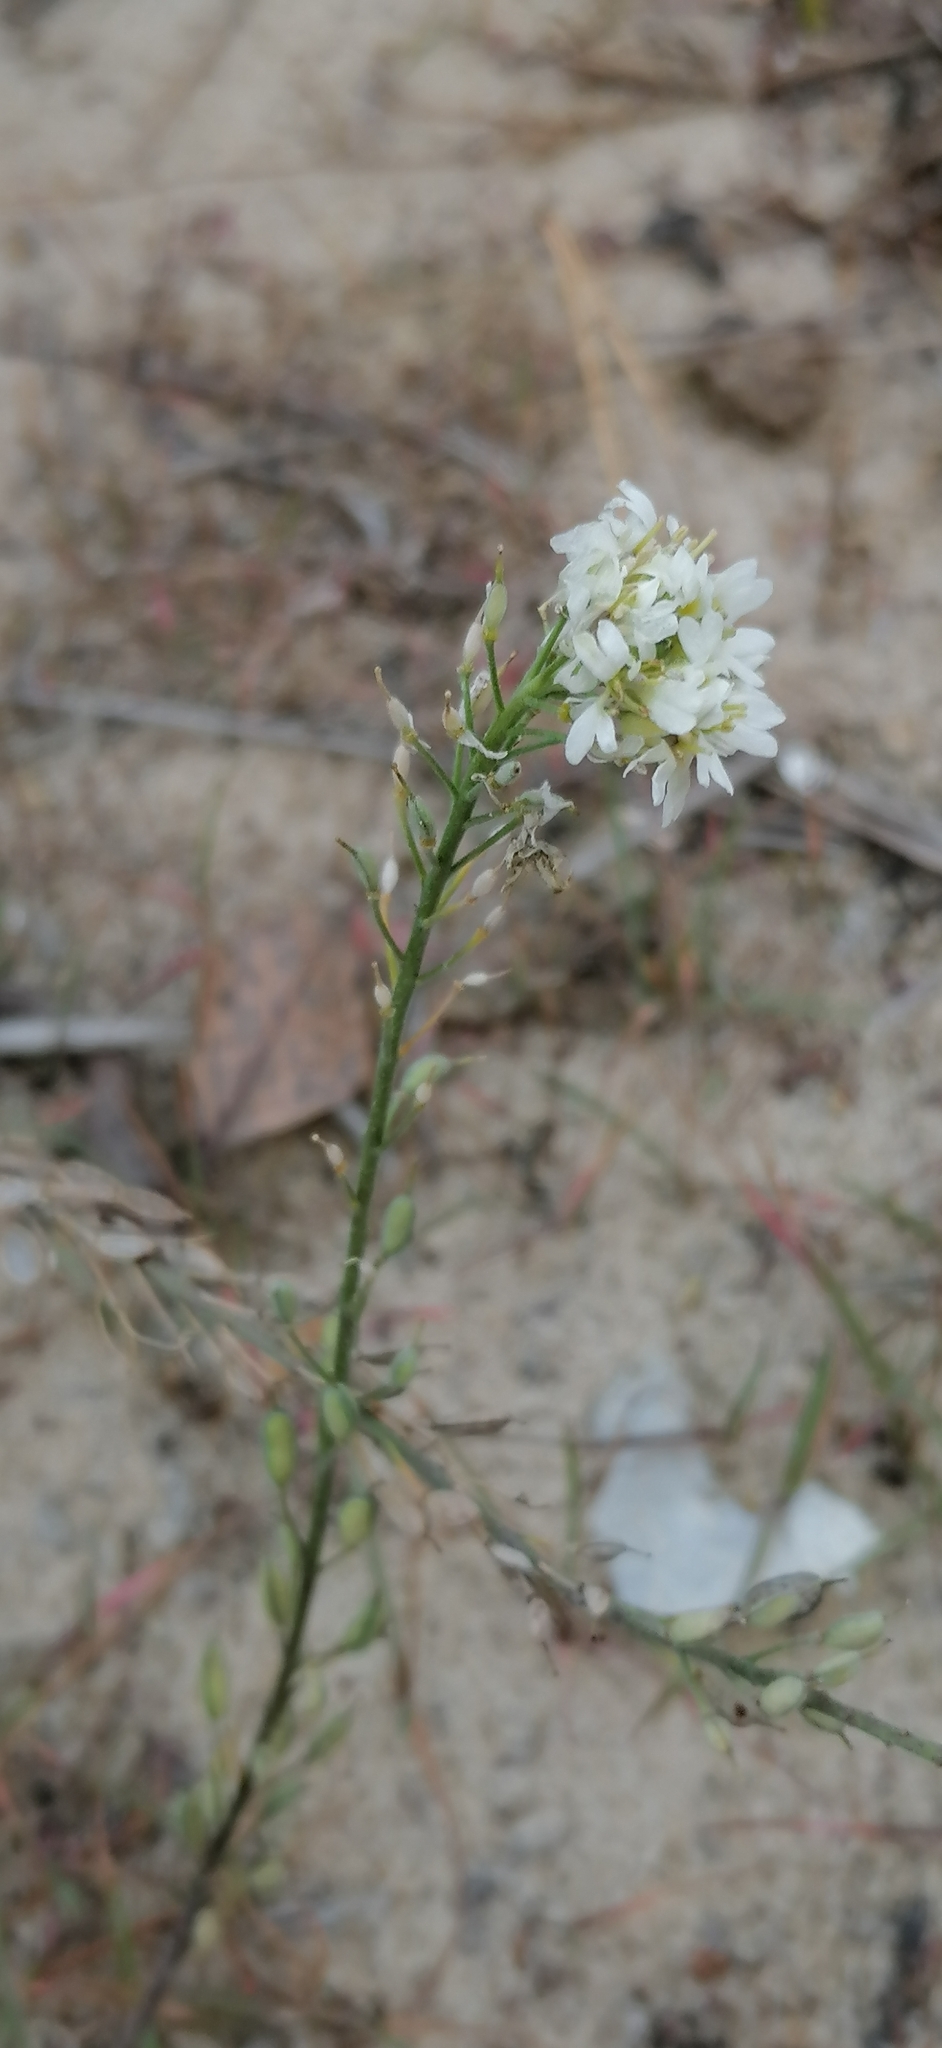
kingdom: Plantae
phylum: Tracheophyta
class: Magnoliopsida
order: Brassicales
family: Brassicaceae
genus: Berteroa
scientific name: Berteroa incana
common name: Hoary alison
